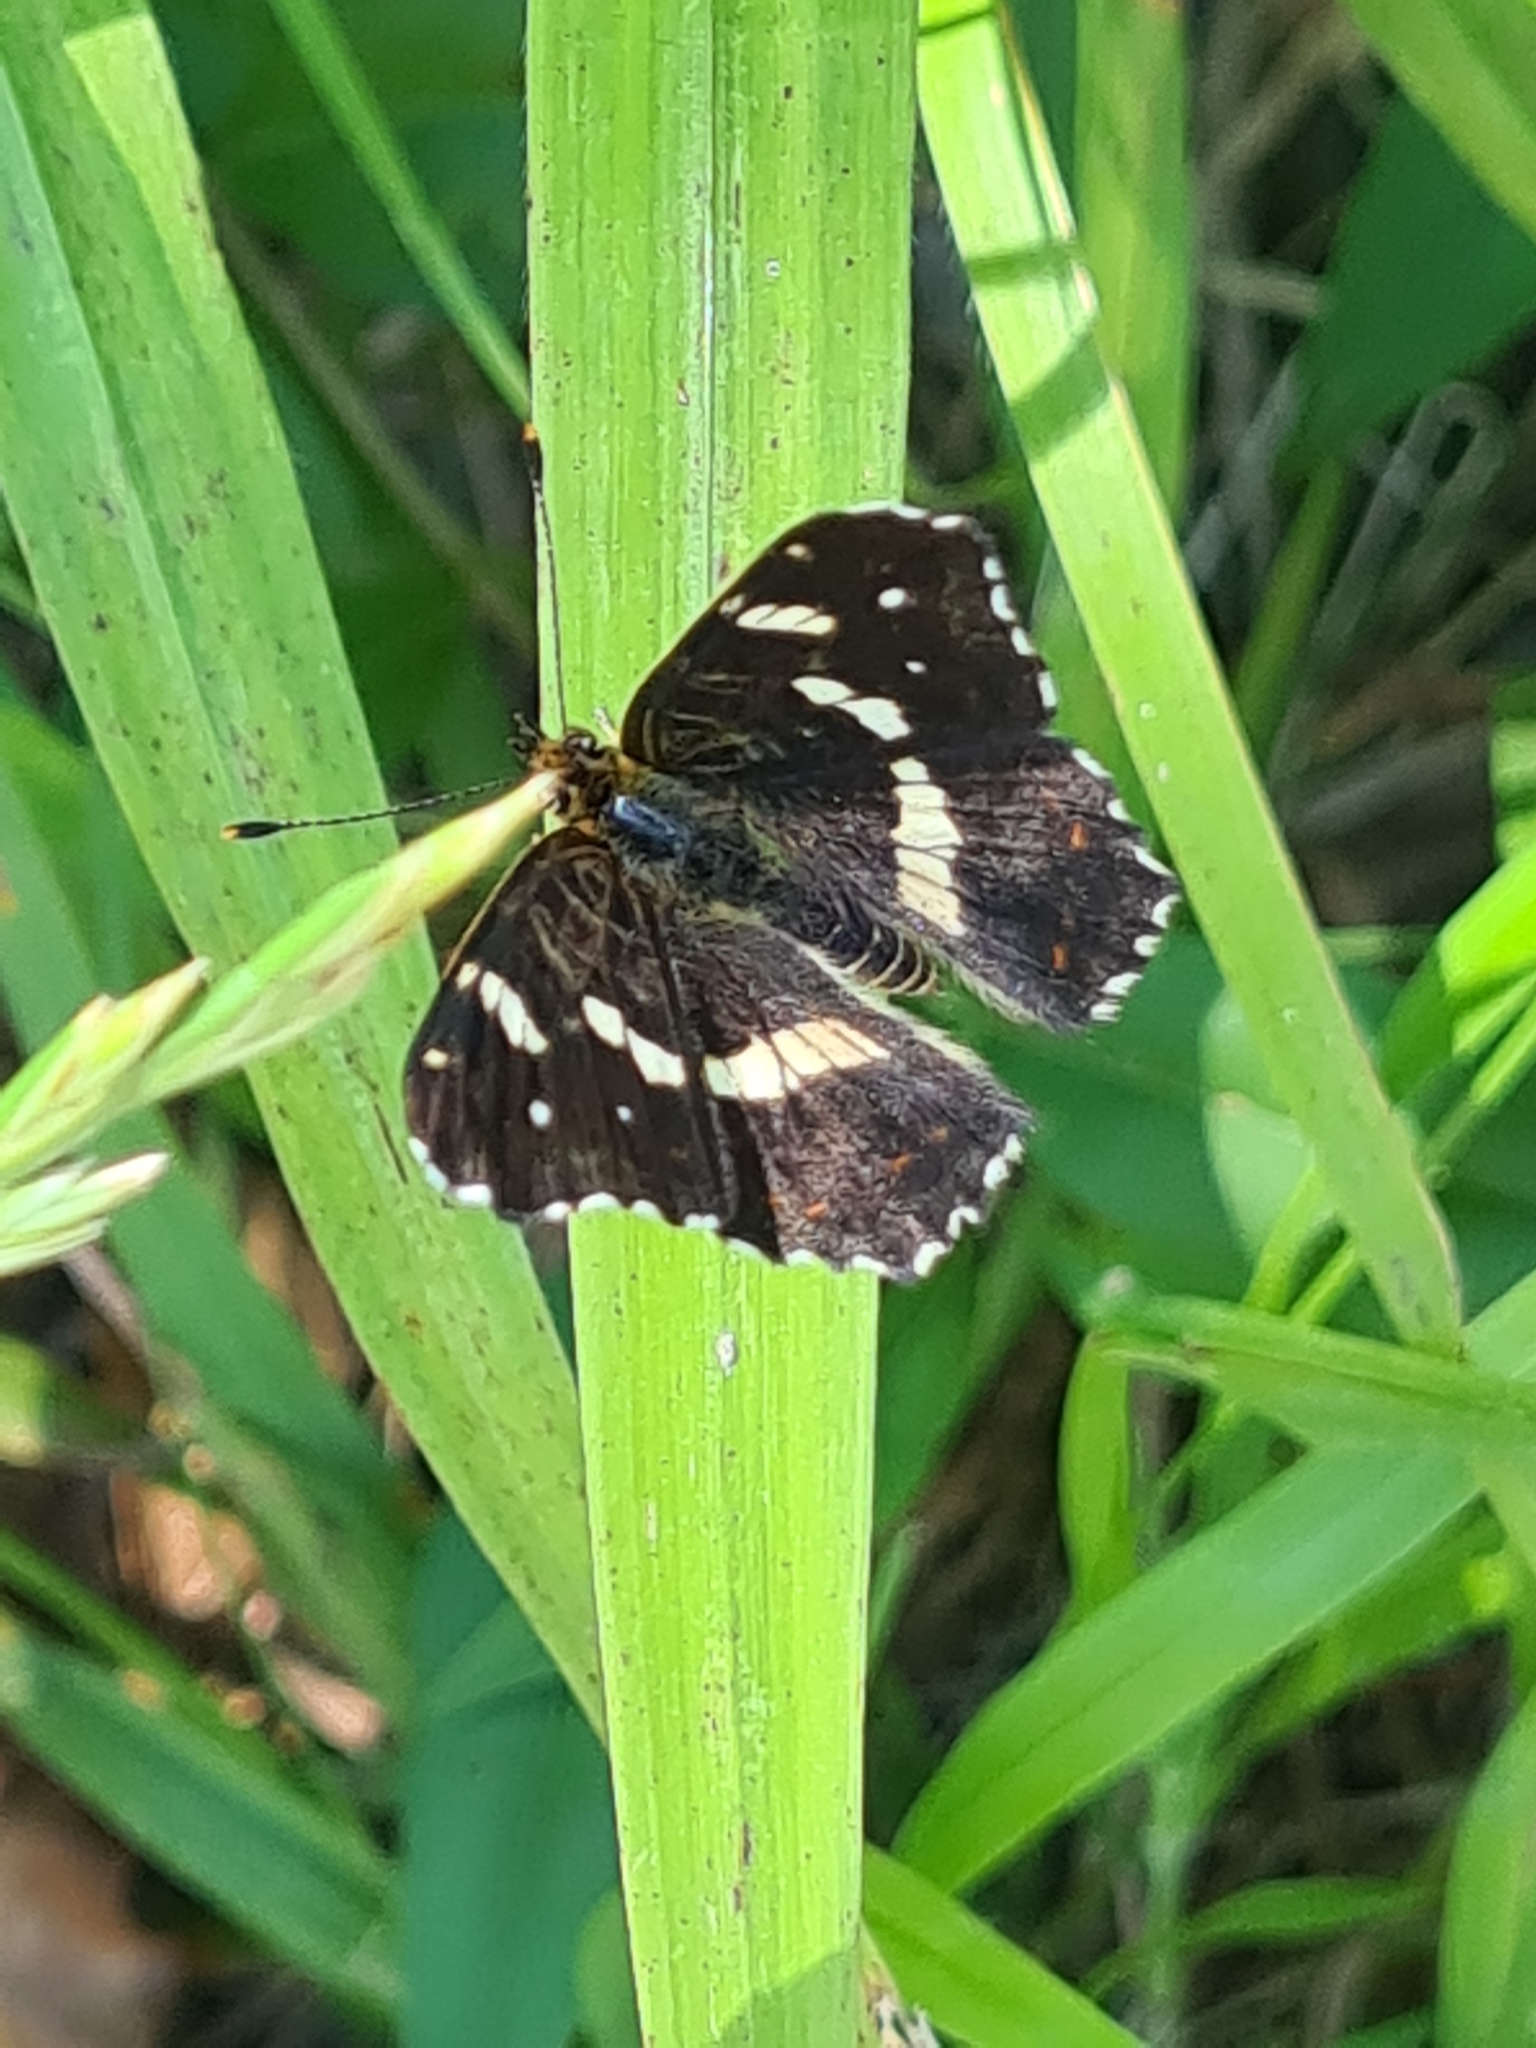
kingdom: Animalia
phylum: Arthropoda
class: Insecta
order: Lepidoptera
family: Nymphalidae
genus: Araschnia
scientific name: Araschnia levana
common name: Map butterfly
